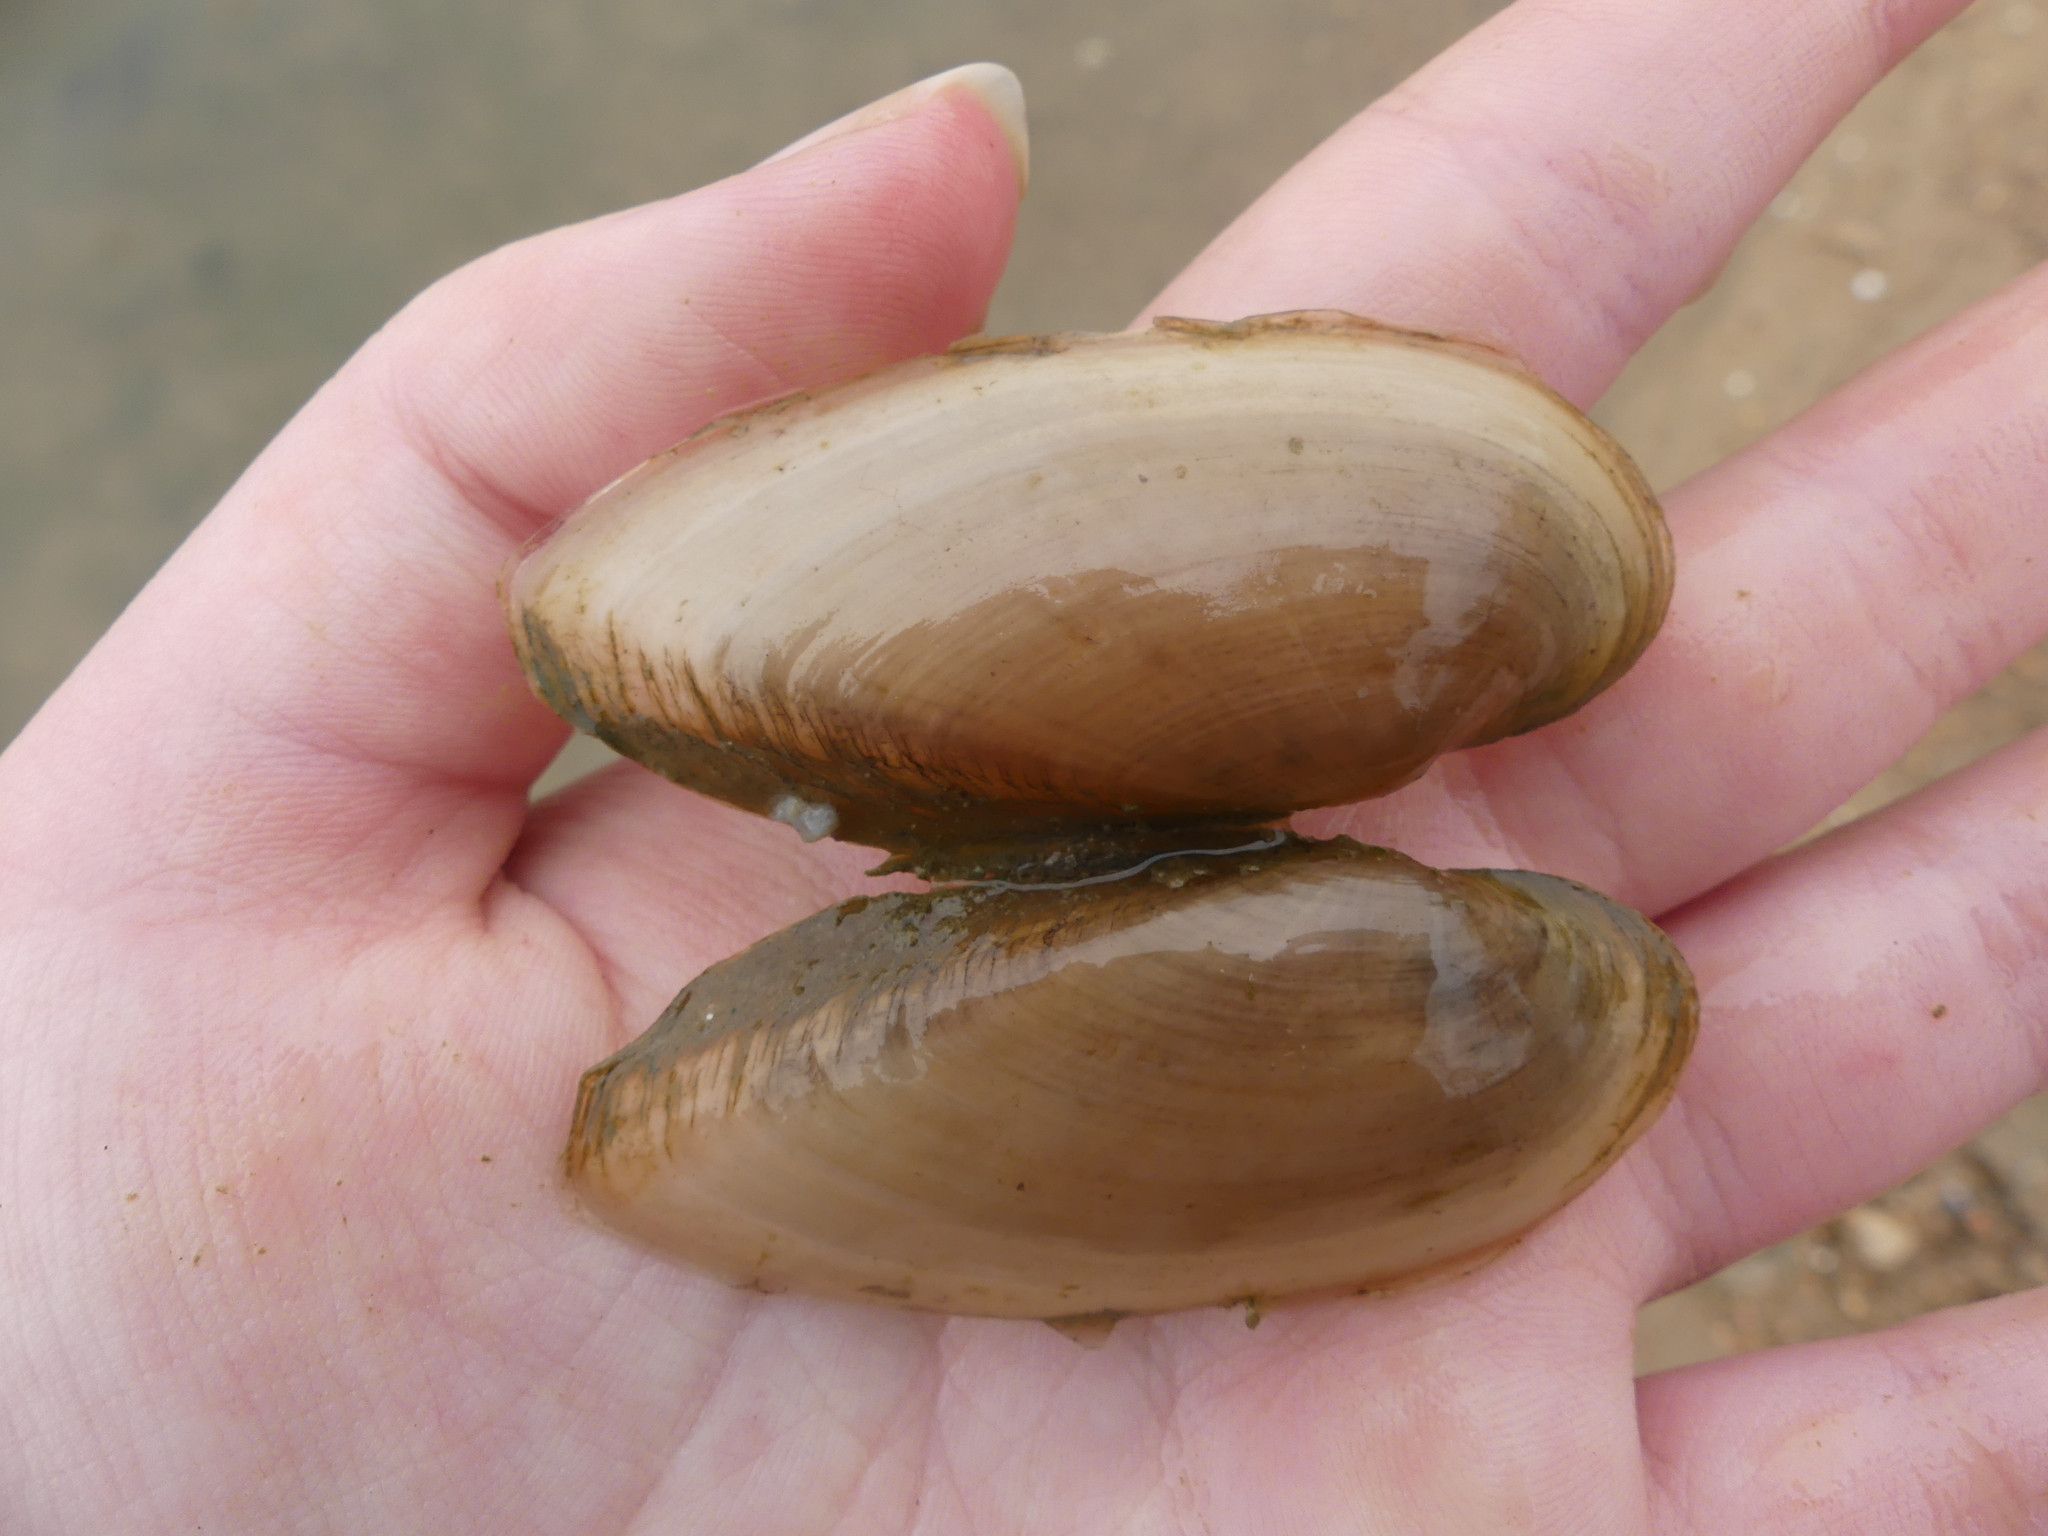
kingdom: Animalia
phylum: Mollusca
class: Bivalvia
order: Unionida
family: Unionidae
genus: Lampsilis
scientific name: Lampsilis teres
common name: Yellow sandshell
